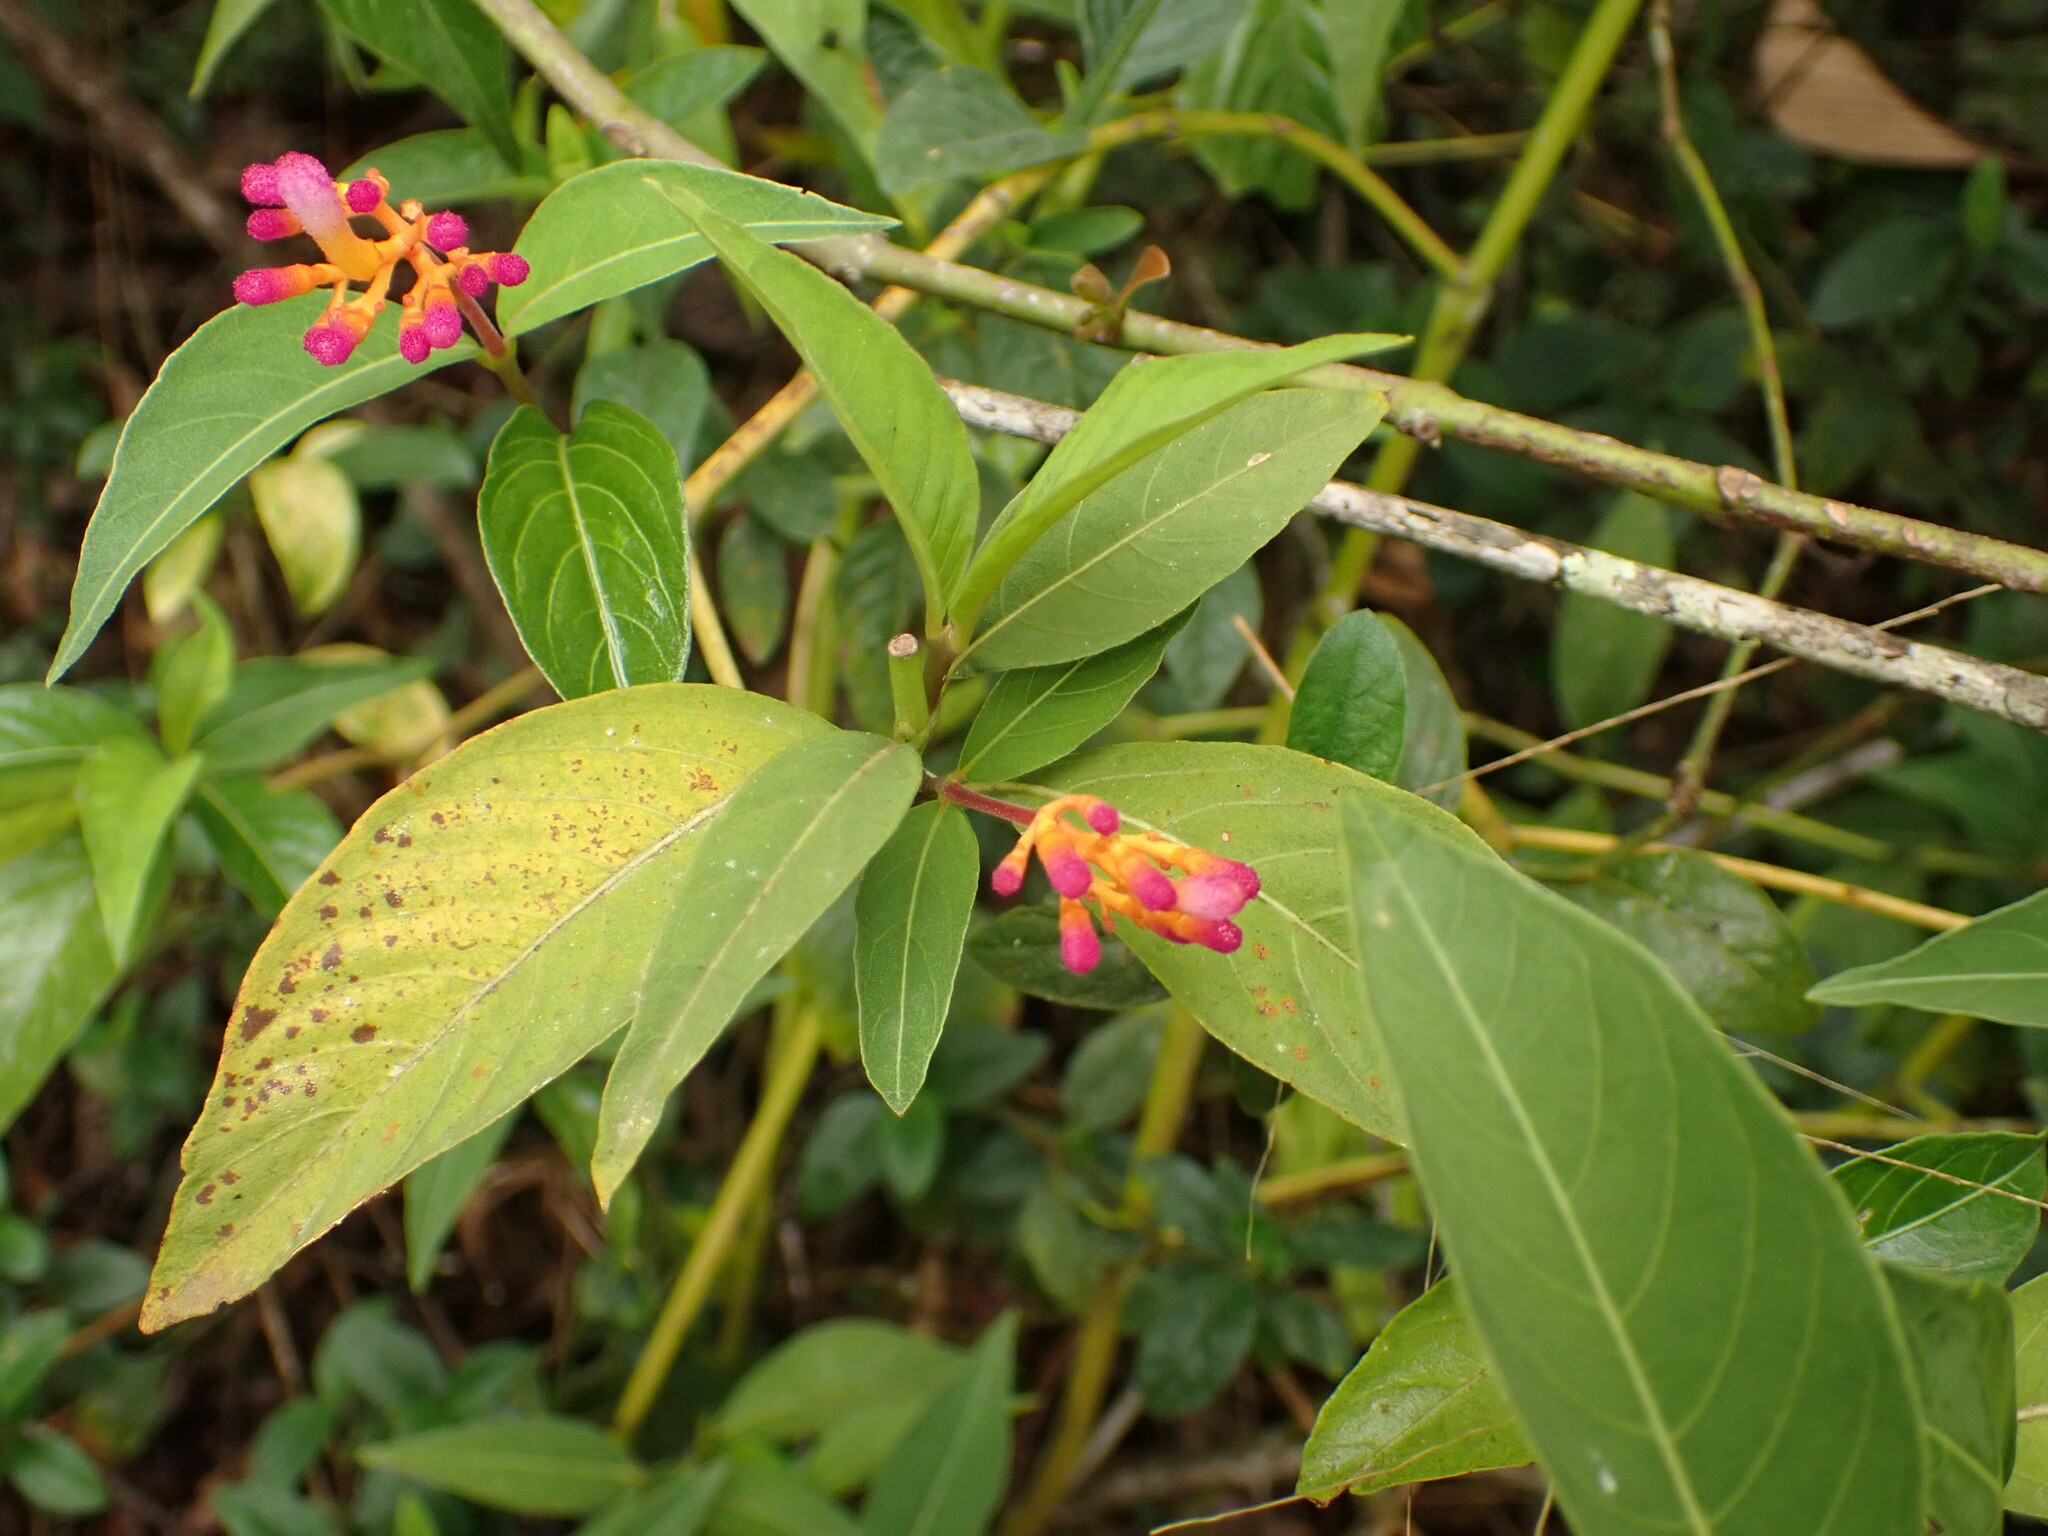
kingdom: Plantae
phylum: Tracheophyta
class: Magnoliopsida
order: Gentianales
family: Rubiaceae
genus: Palicourea
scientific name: Palicourea marcgravii
